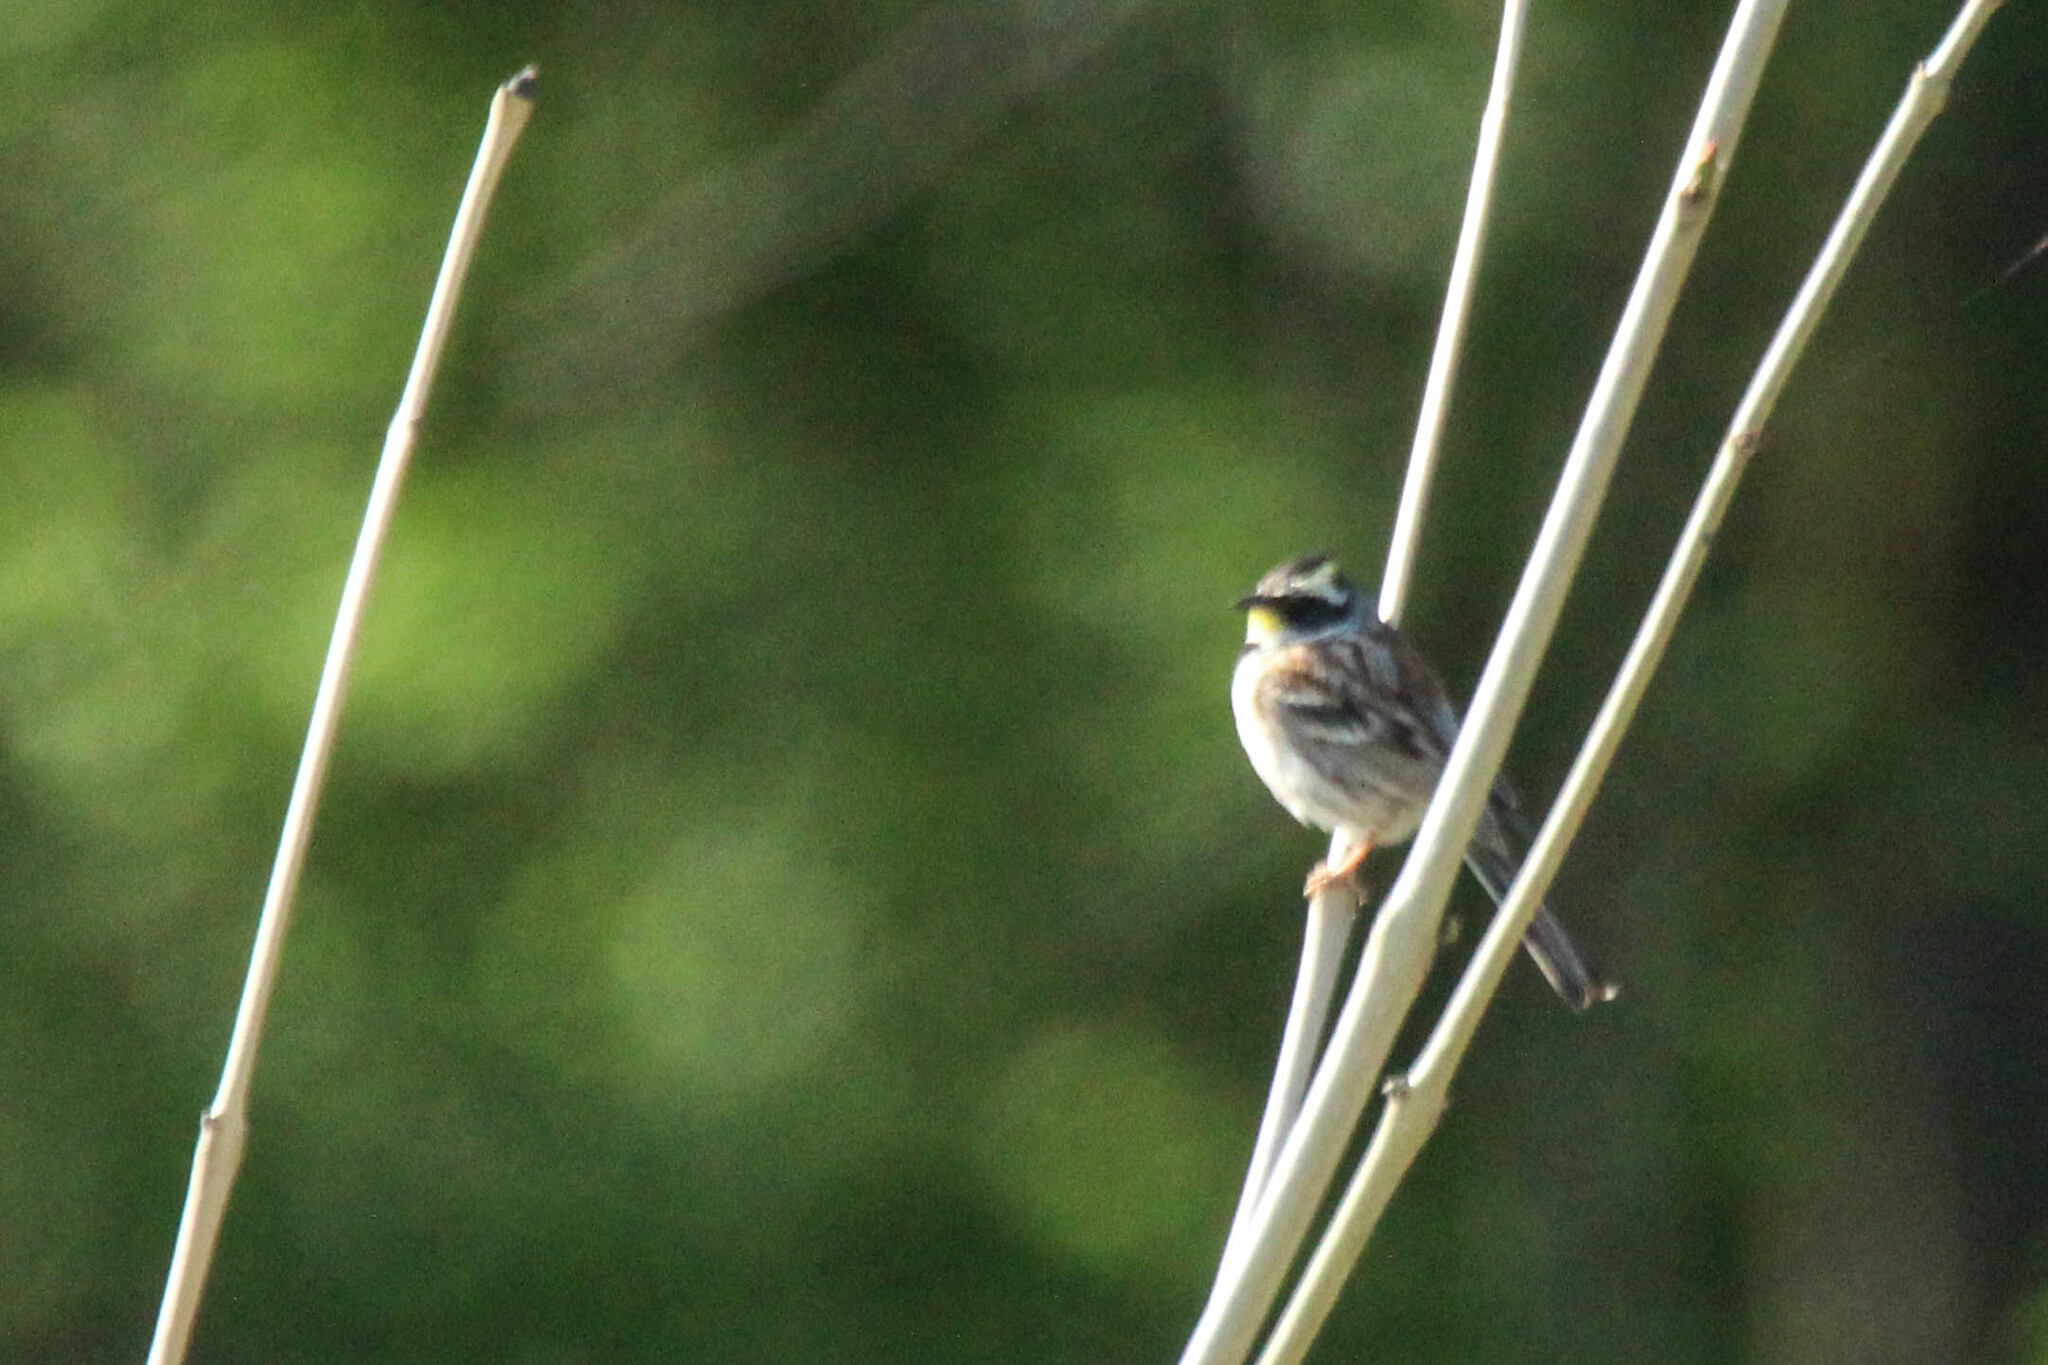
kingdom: Animalia
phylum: Chordata
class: Aves
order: Passeriformes
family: Emberizidae
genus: Emberiza
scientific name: Emberiza elegans
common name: Yellow-throated bunting
